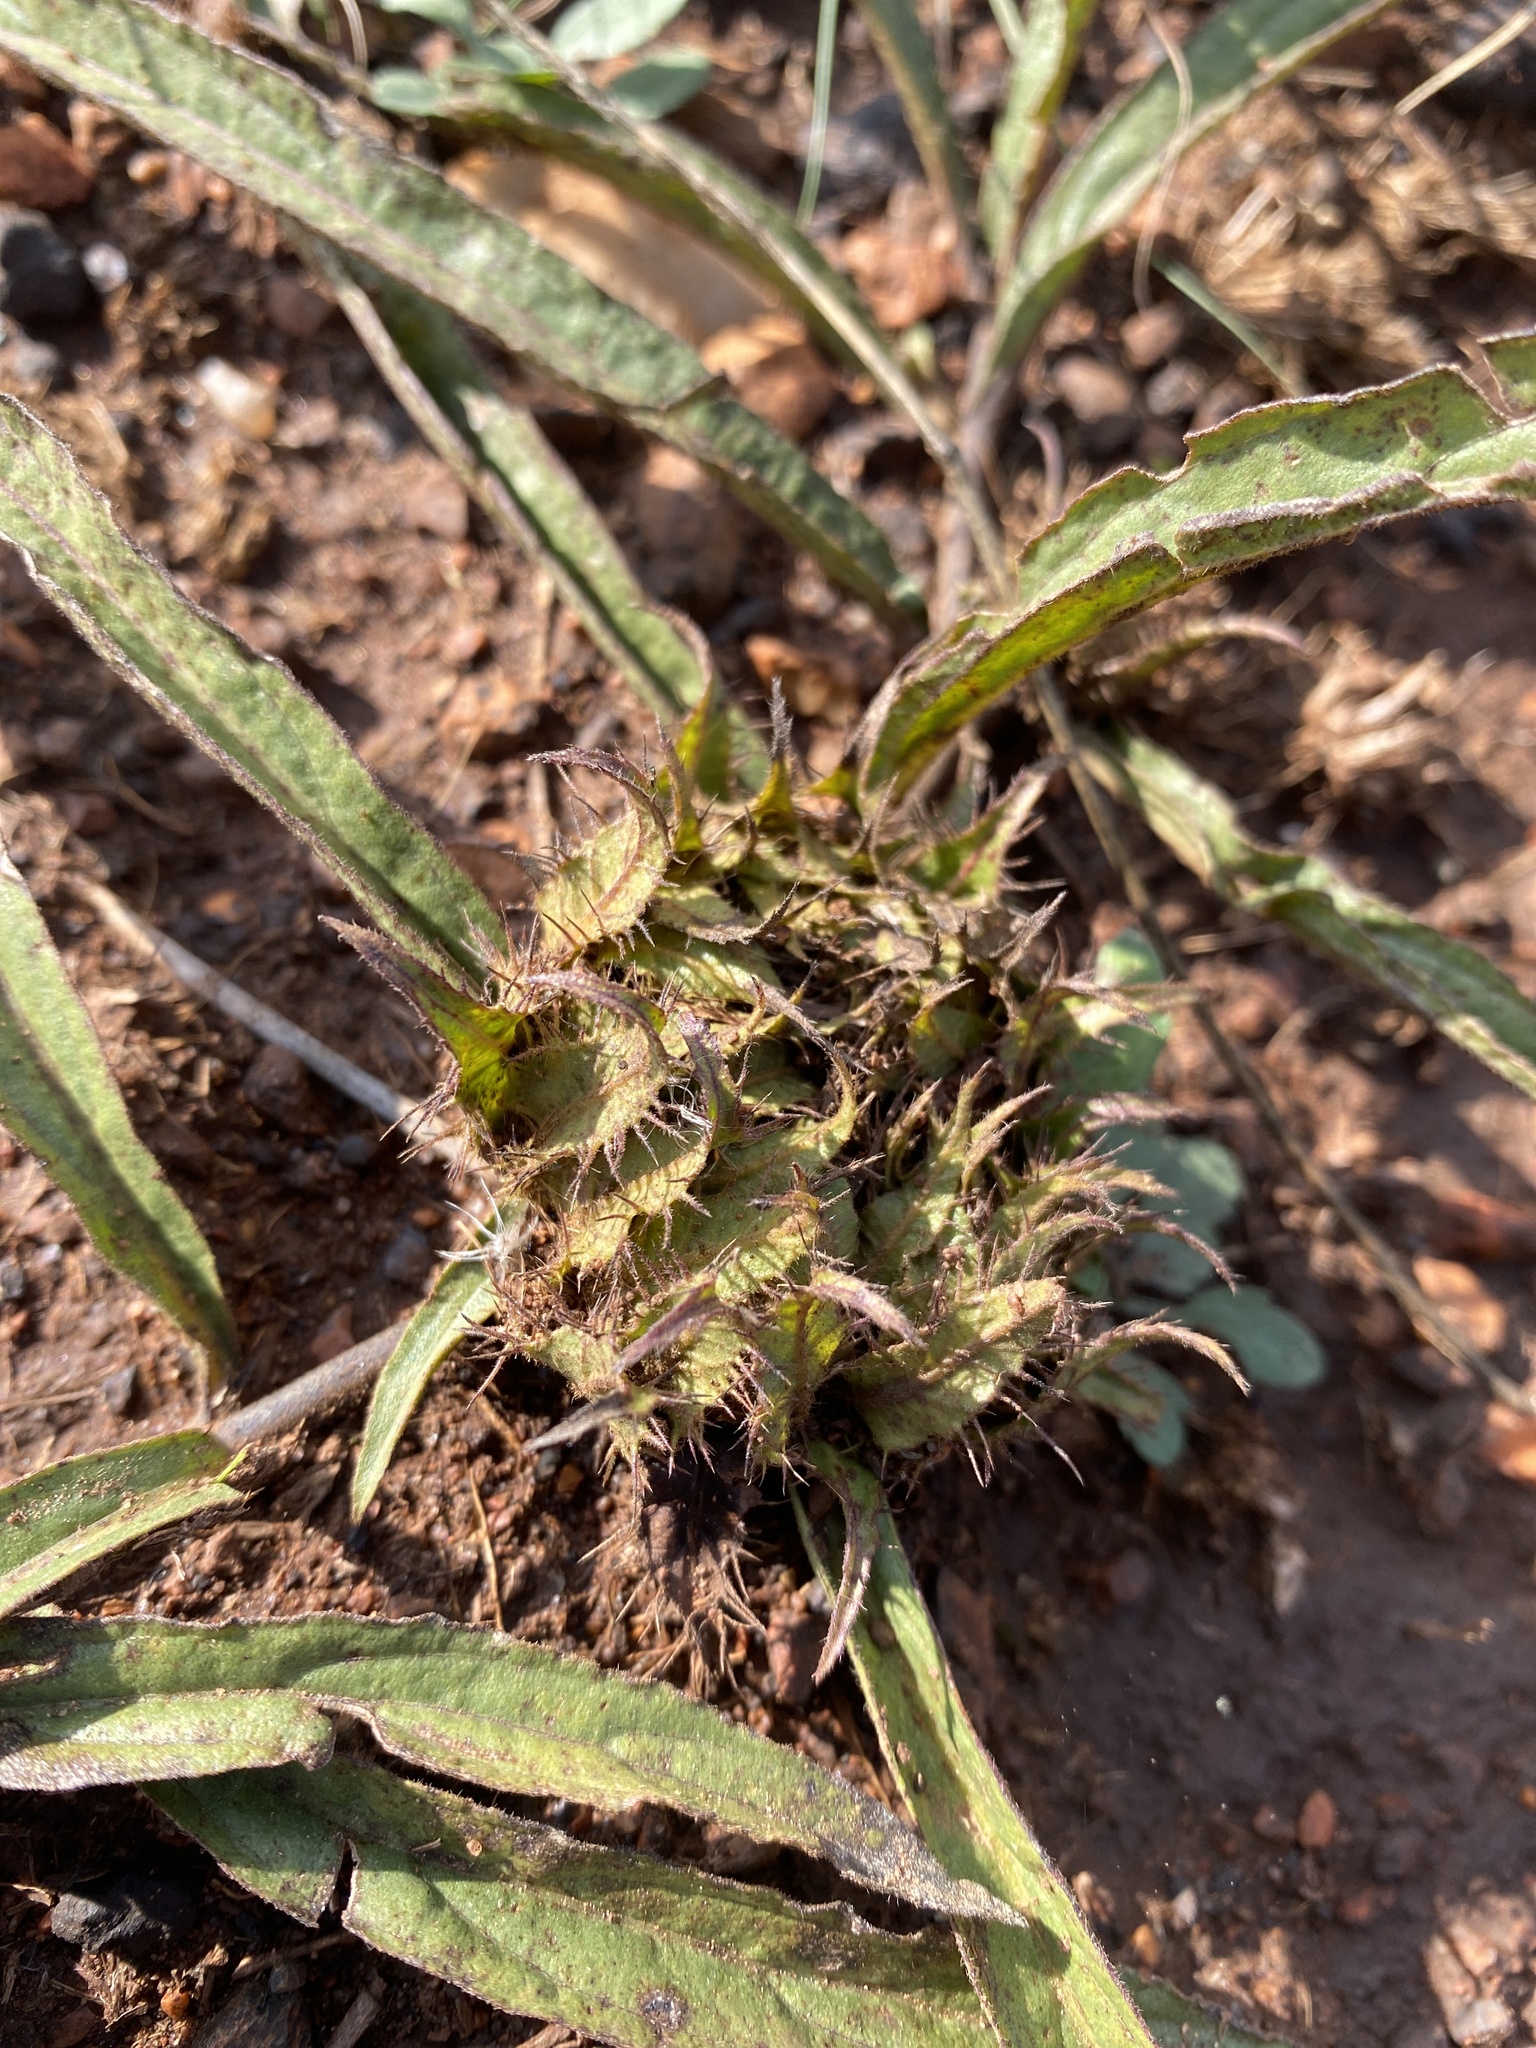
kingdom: Plantae
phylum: Tracheophyta
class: Magnoliopsida
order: Lamiales
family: Acanthaceae
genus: Crabbea
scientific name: Crabbea cirsioides
